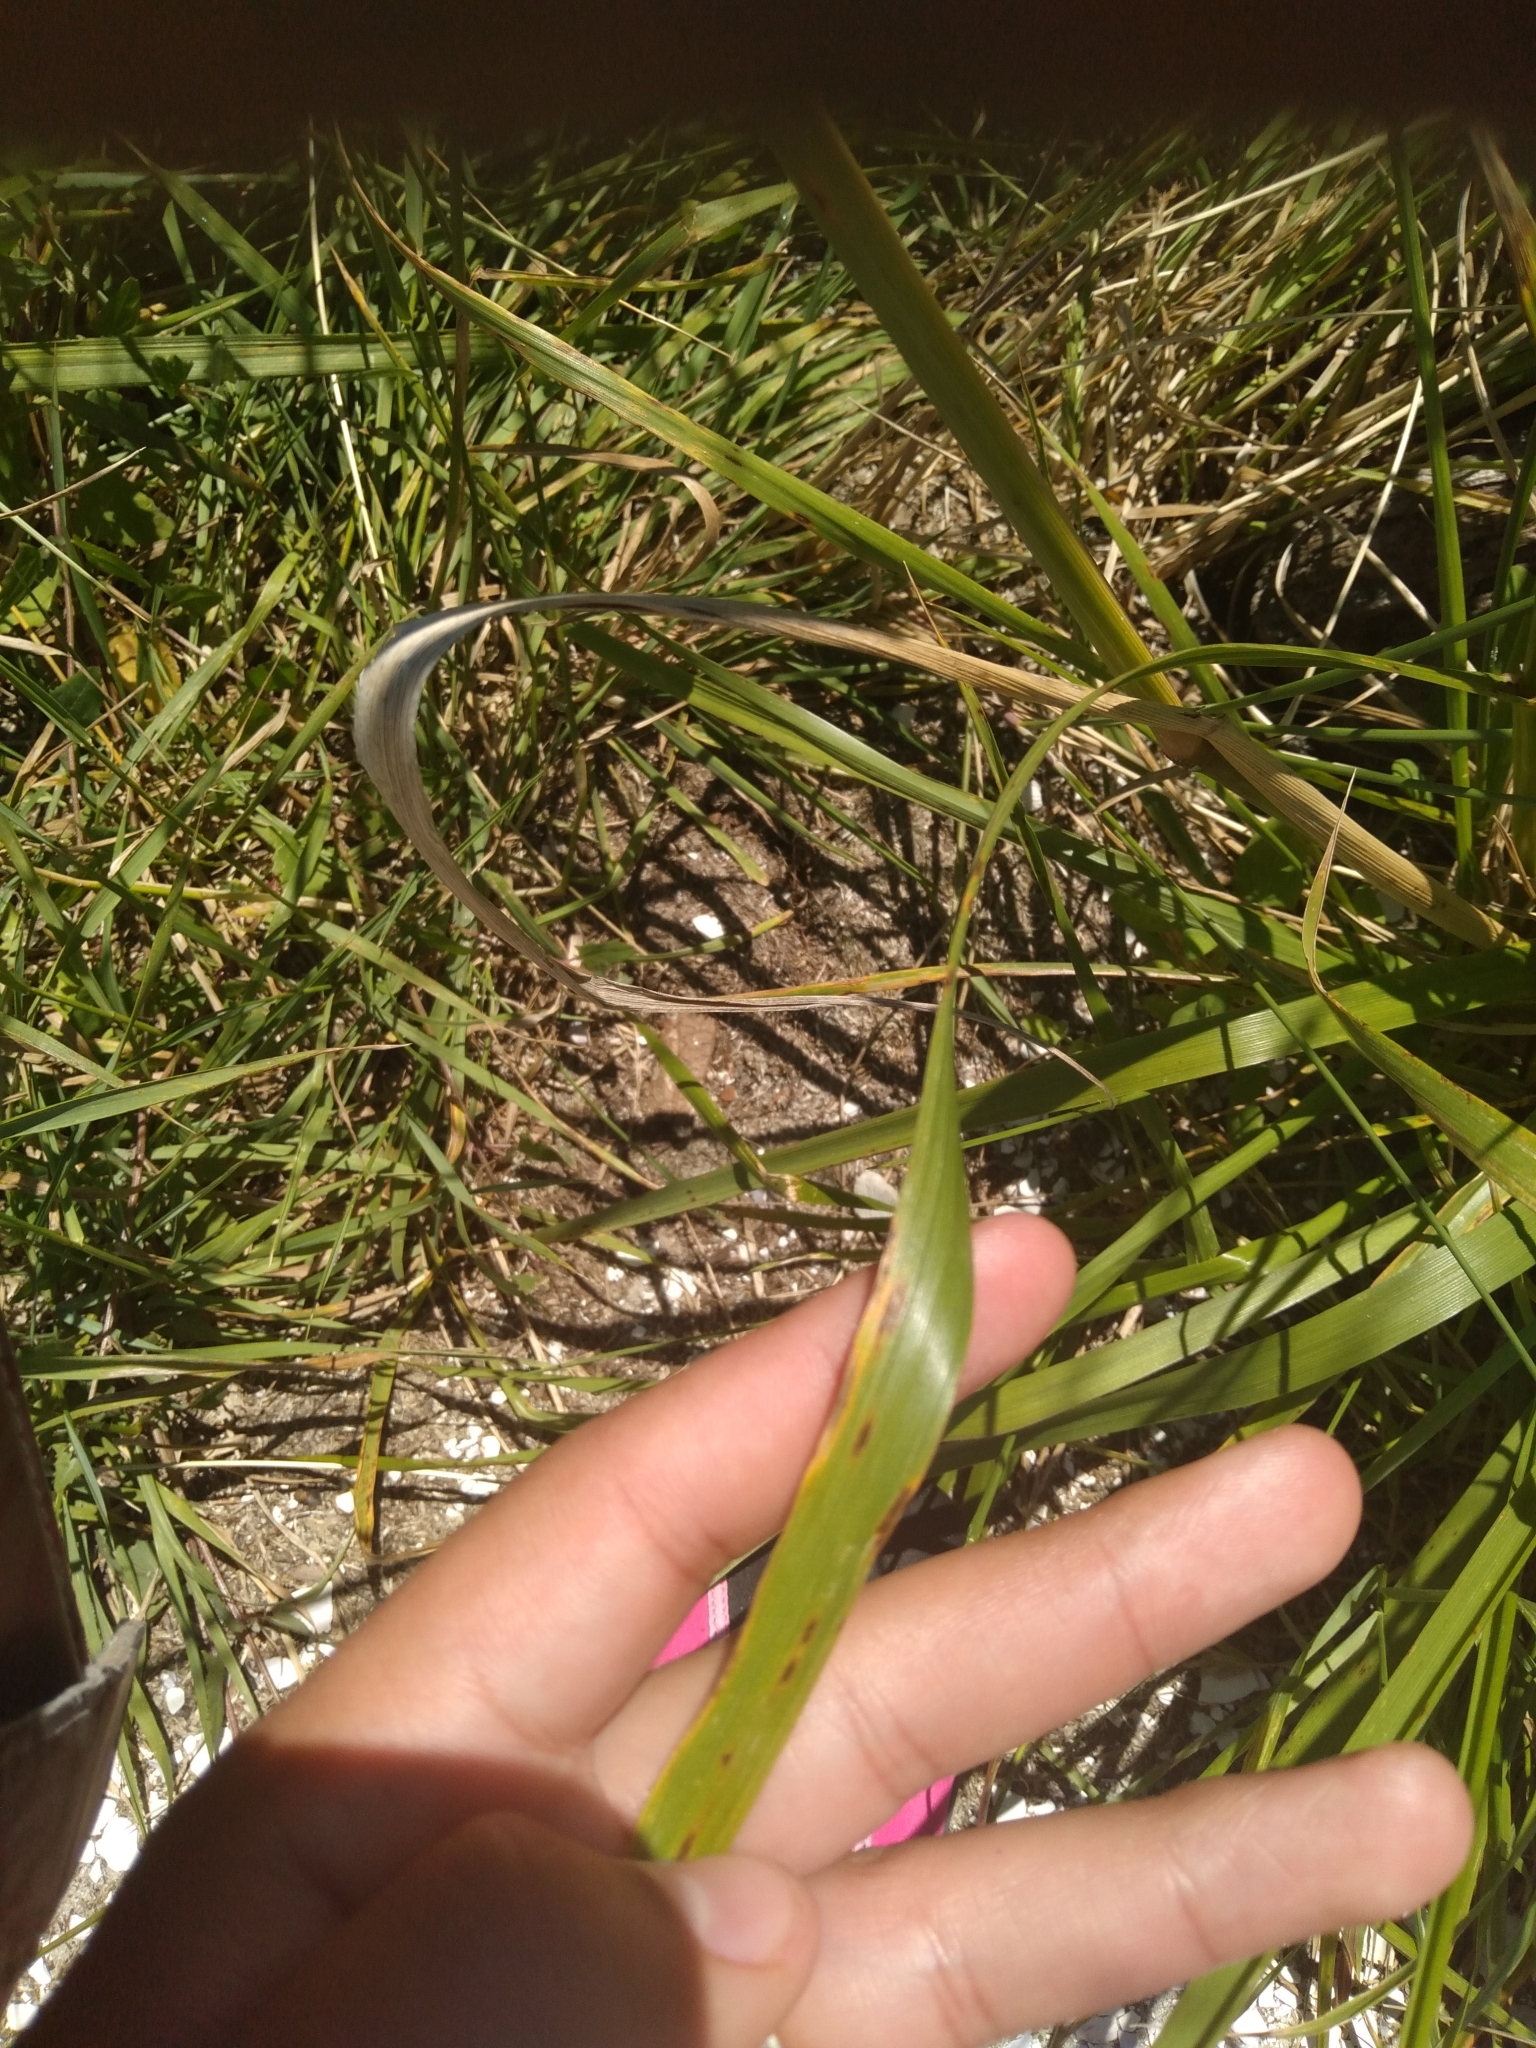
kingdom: Plantae
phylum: Tracheophyta
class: Liliopsida
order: Poales
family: Poaceae
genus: Lolium
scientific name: Lolium arundinaceum
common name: Reed fescue
